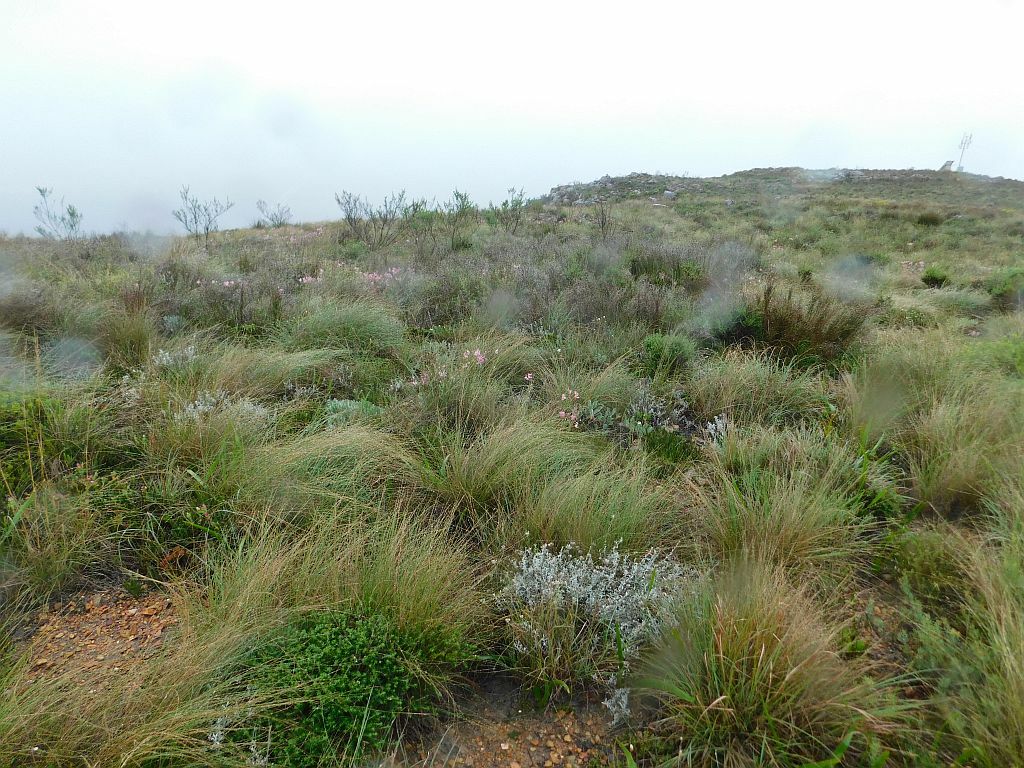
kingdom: Plantae
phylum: Tracheophyta
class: Liliopsida
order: Asparagales
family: Amaryllidaceae
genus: Nerine
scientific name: Nerine humilis
